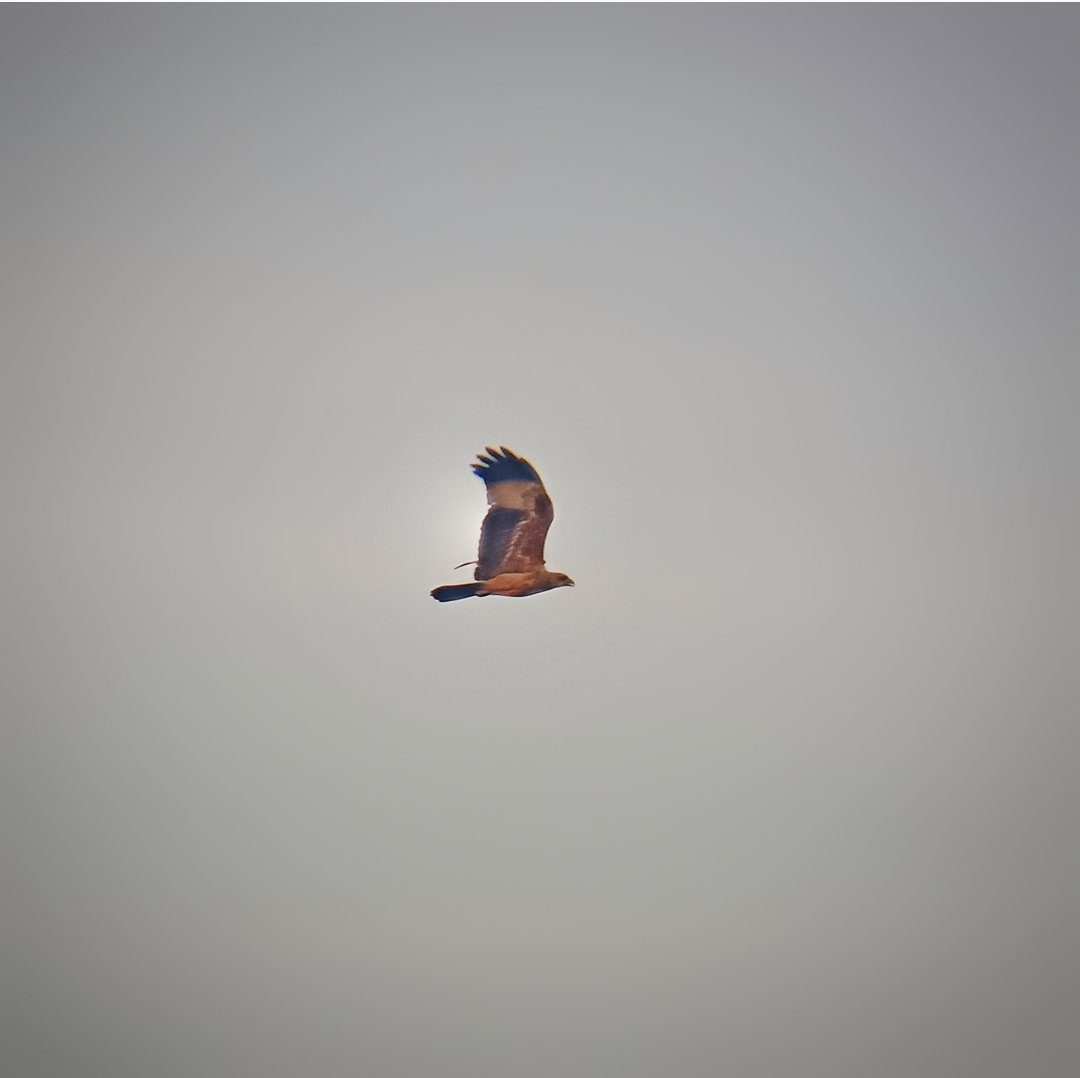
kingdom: Animalia
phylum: Chordata
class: Aves
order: Accipitriformes
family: Accipitridae
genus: Haliastur
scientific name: Haliastur indus
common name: Brahminy kite
